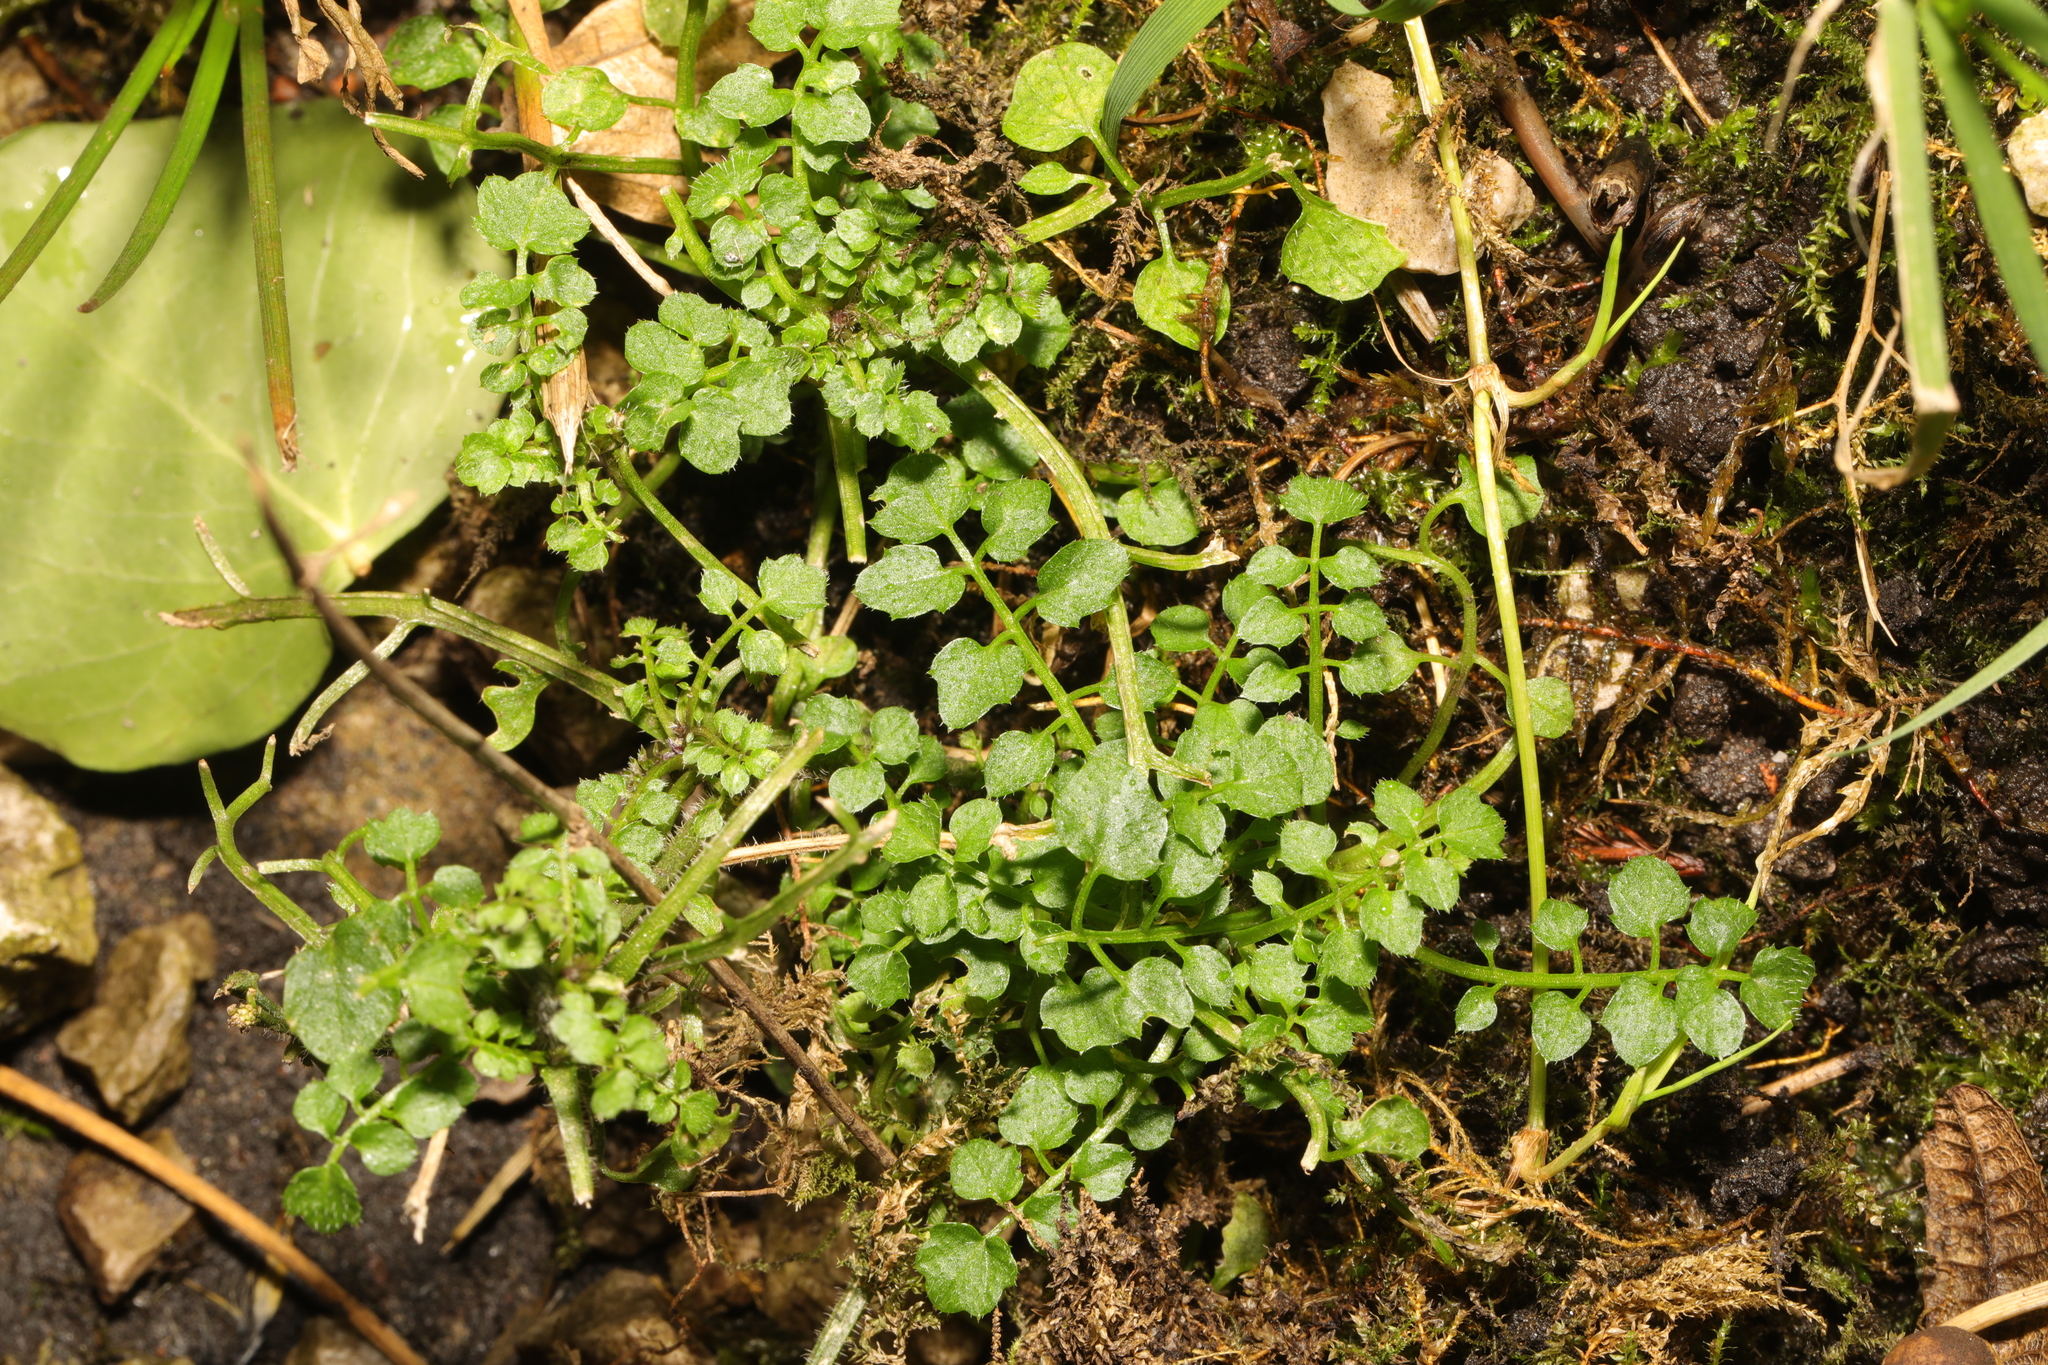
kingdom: Plantae
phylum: Tracheophyta
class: Magnoliopsida
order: Brassicales
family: Brassicaceae
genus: Cardamine
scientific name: Cardamine flexuosa
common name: Woodland bittercress
